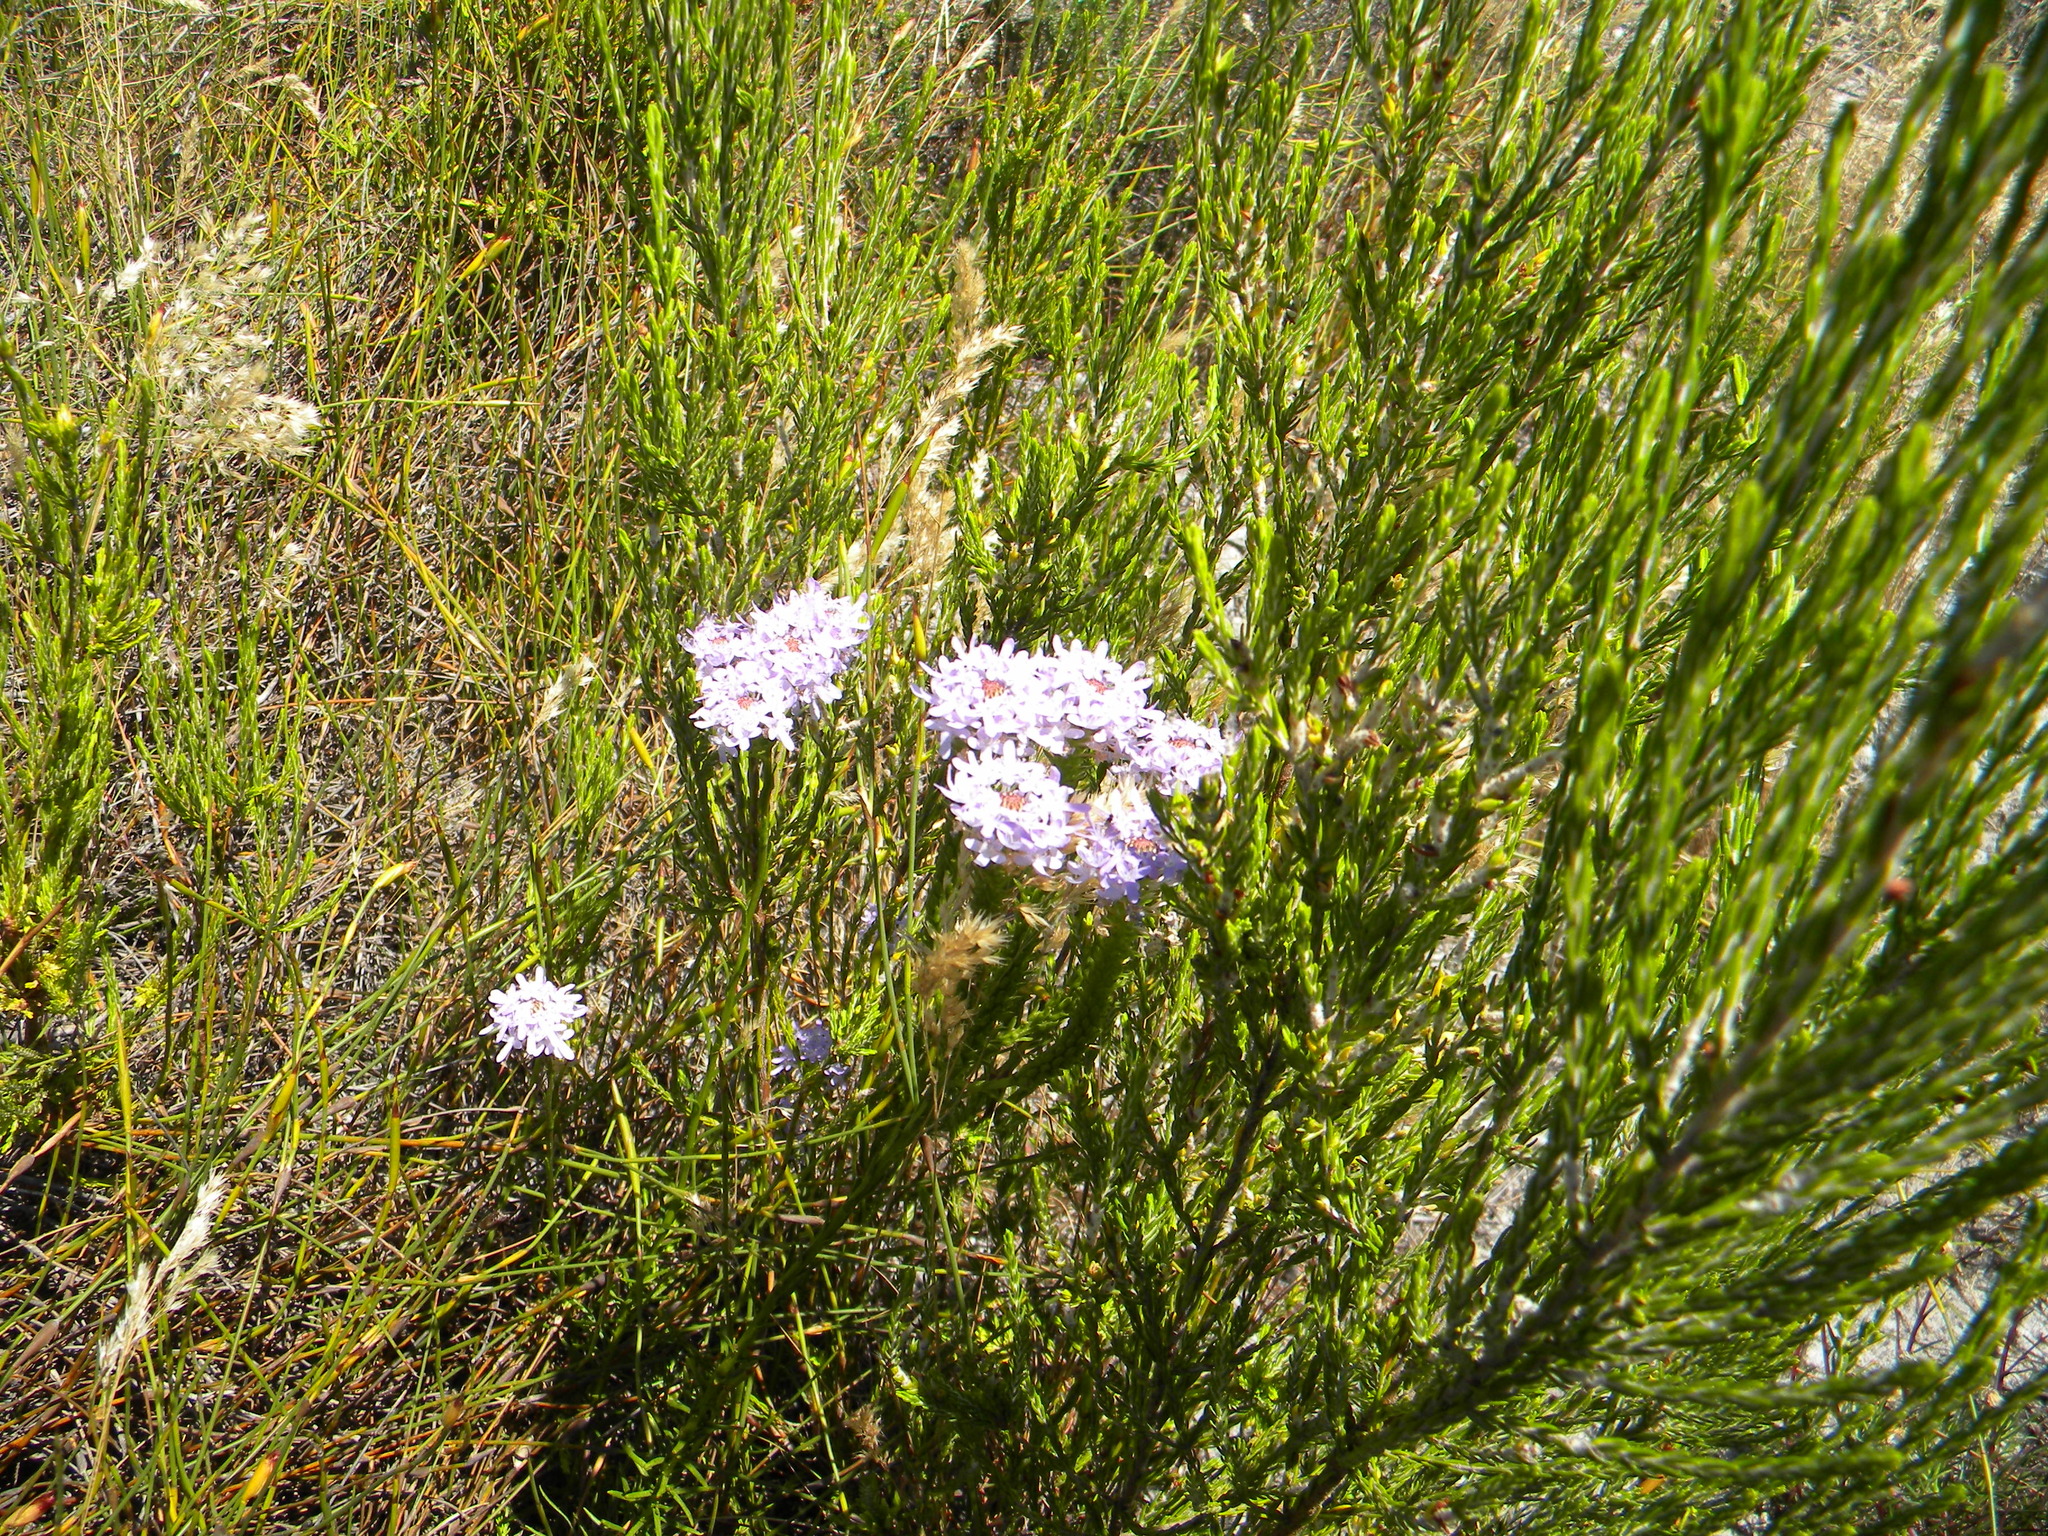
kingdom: Plantae
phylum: Tracheophyta
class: Magnoliopsida
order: Lamiales
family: Scrophulariaceae
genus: Pseudoselago
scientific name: Pseudoselago spuria
